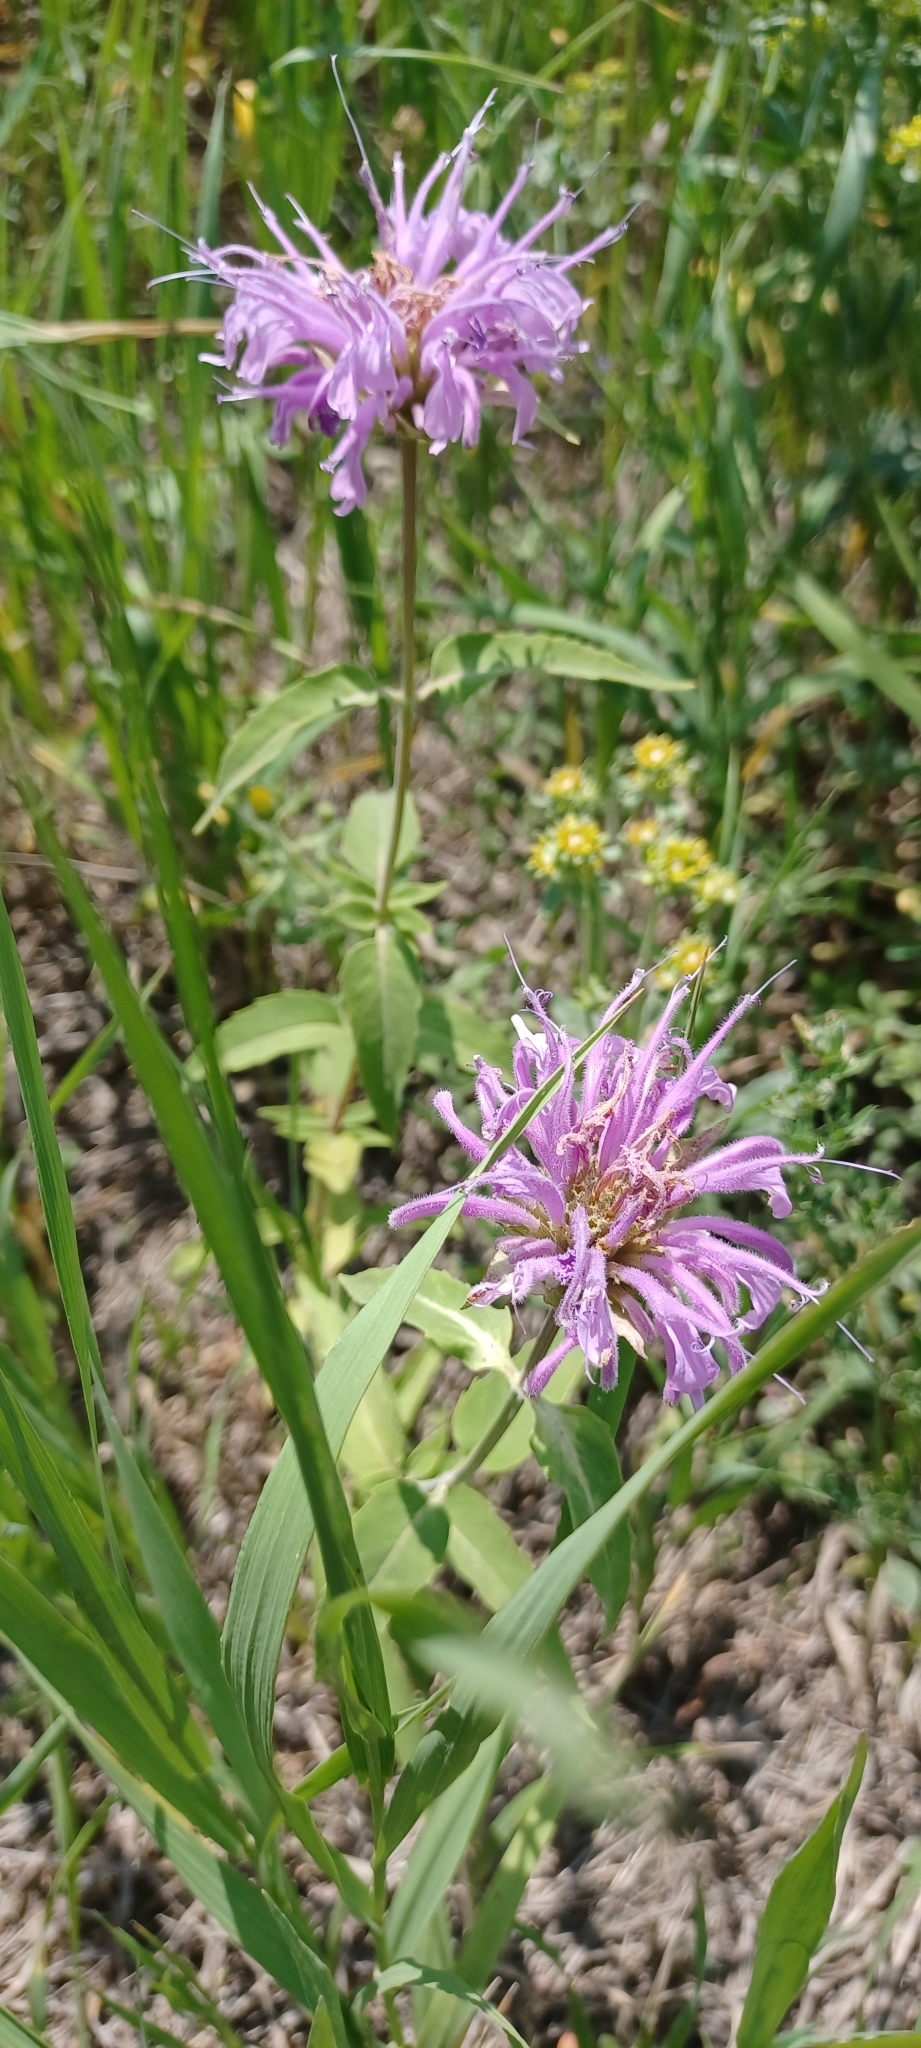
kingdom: Plantae
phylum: Tracheophyta
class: Magnoliopsida
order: Lamiales
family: Lamiaceae
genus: Monarda
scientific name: Monarda fistulosa
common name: Purple beebalm
